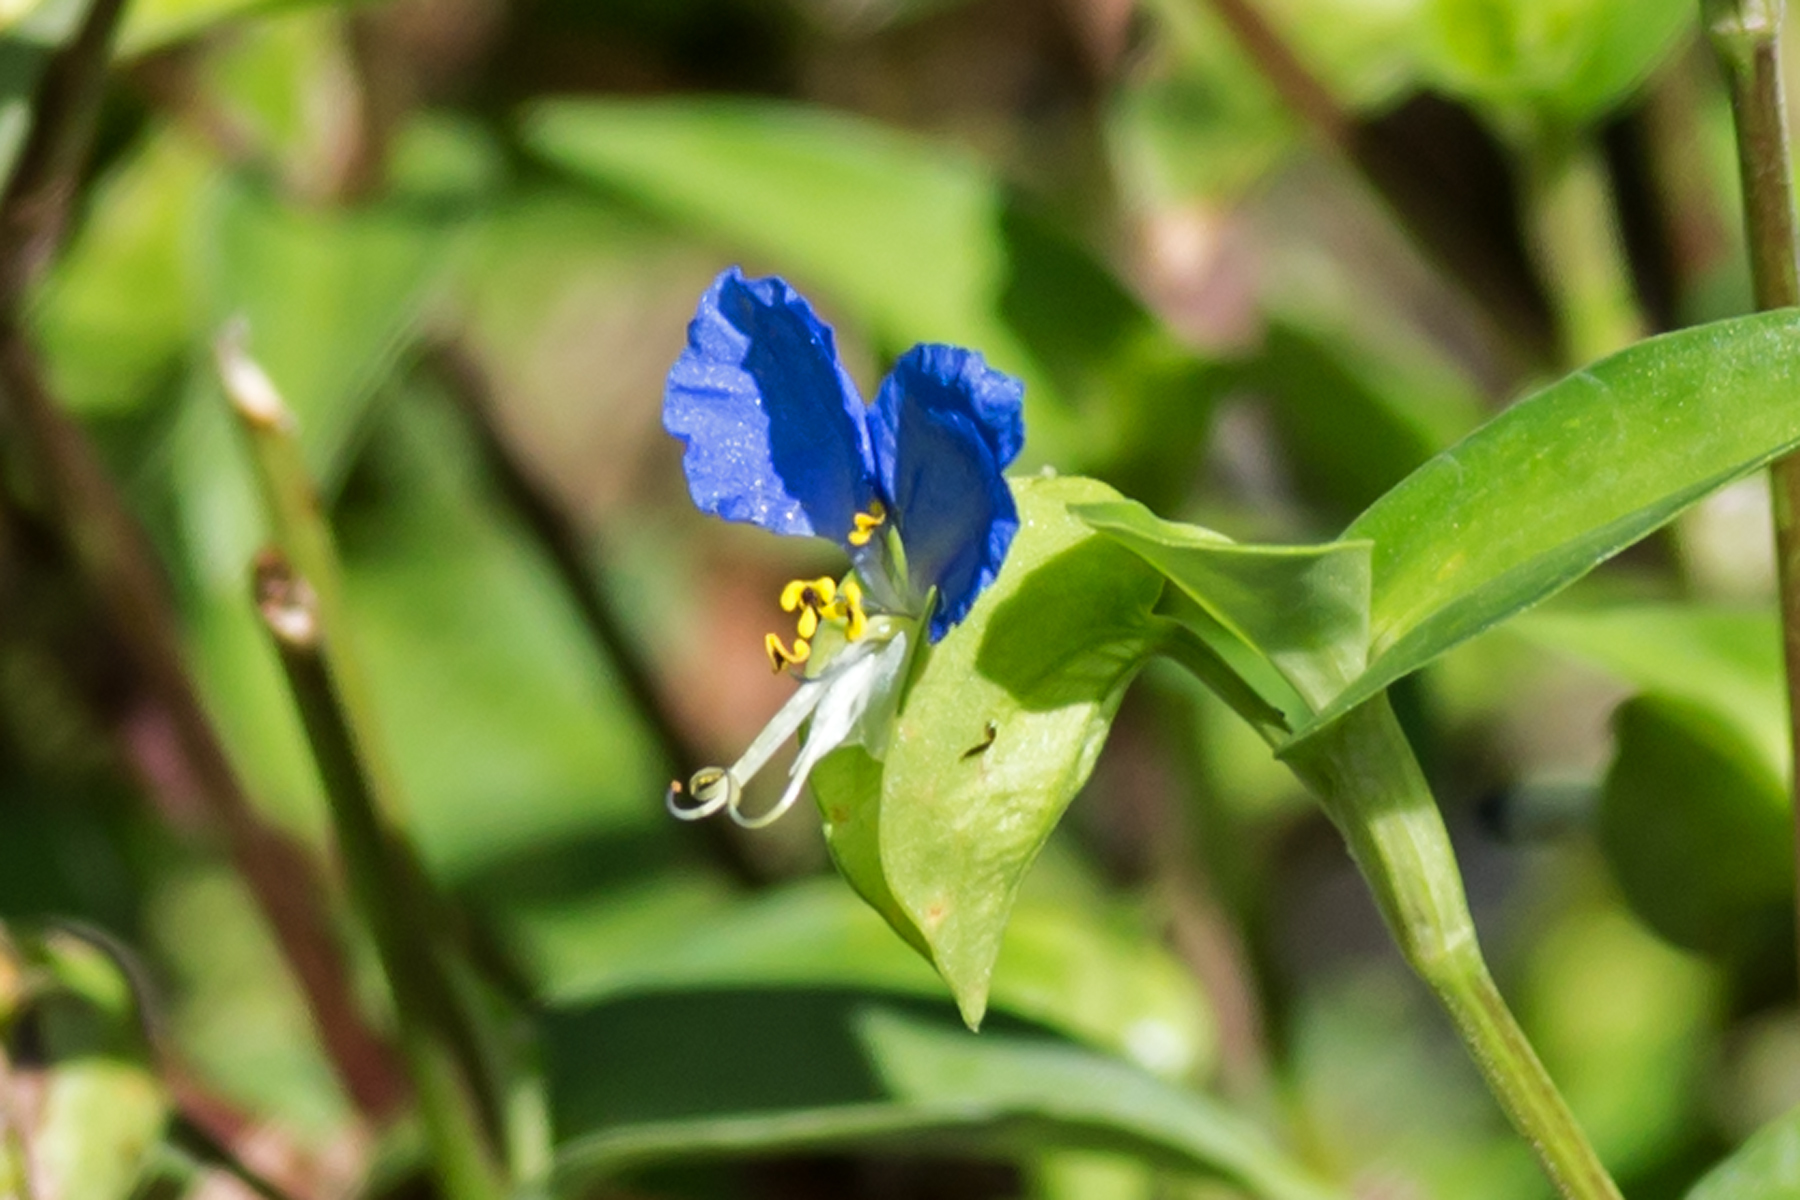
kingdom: Plantae
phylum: Tracheophyta
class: Liliopsida
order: Commelinales
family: Commelinaceae
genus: Commelina
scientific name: Commelina communis
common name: Asiatic dayflower
